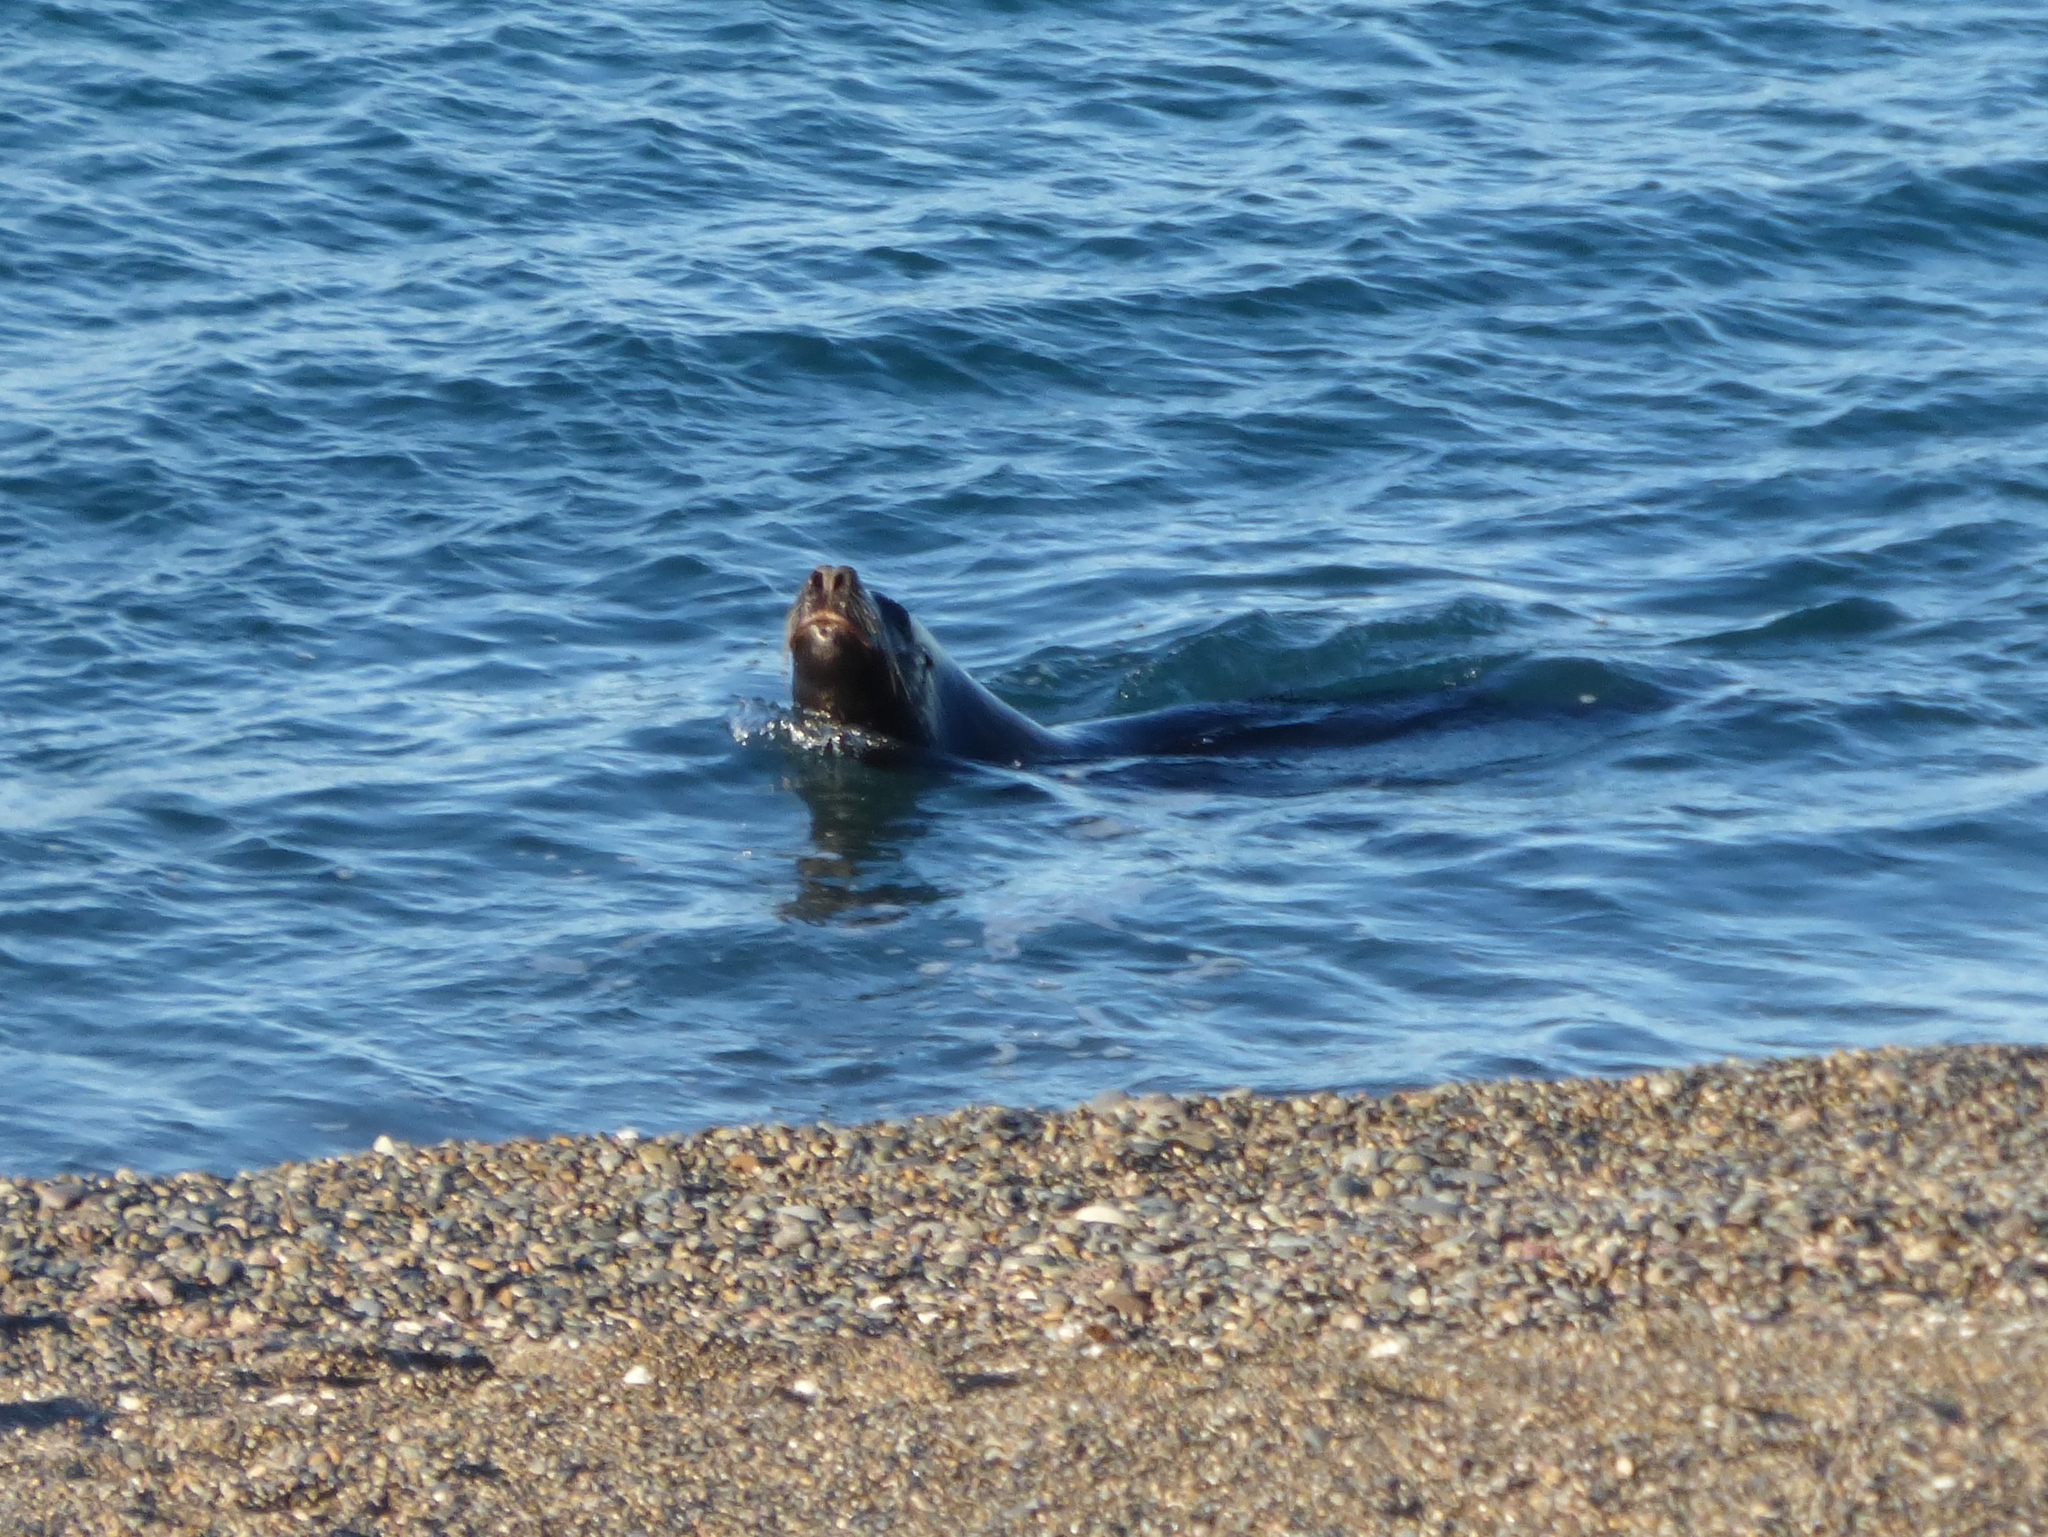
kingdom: Animalia
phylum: Chordata
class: Mammalia
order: Carnivora
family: Otariidae
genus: Otaria
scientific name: Otaria byronia
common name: South american sea lion
